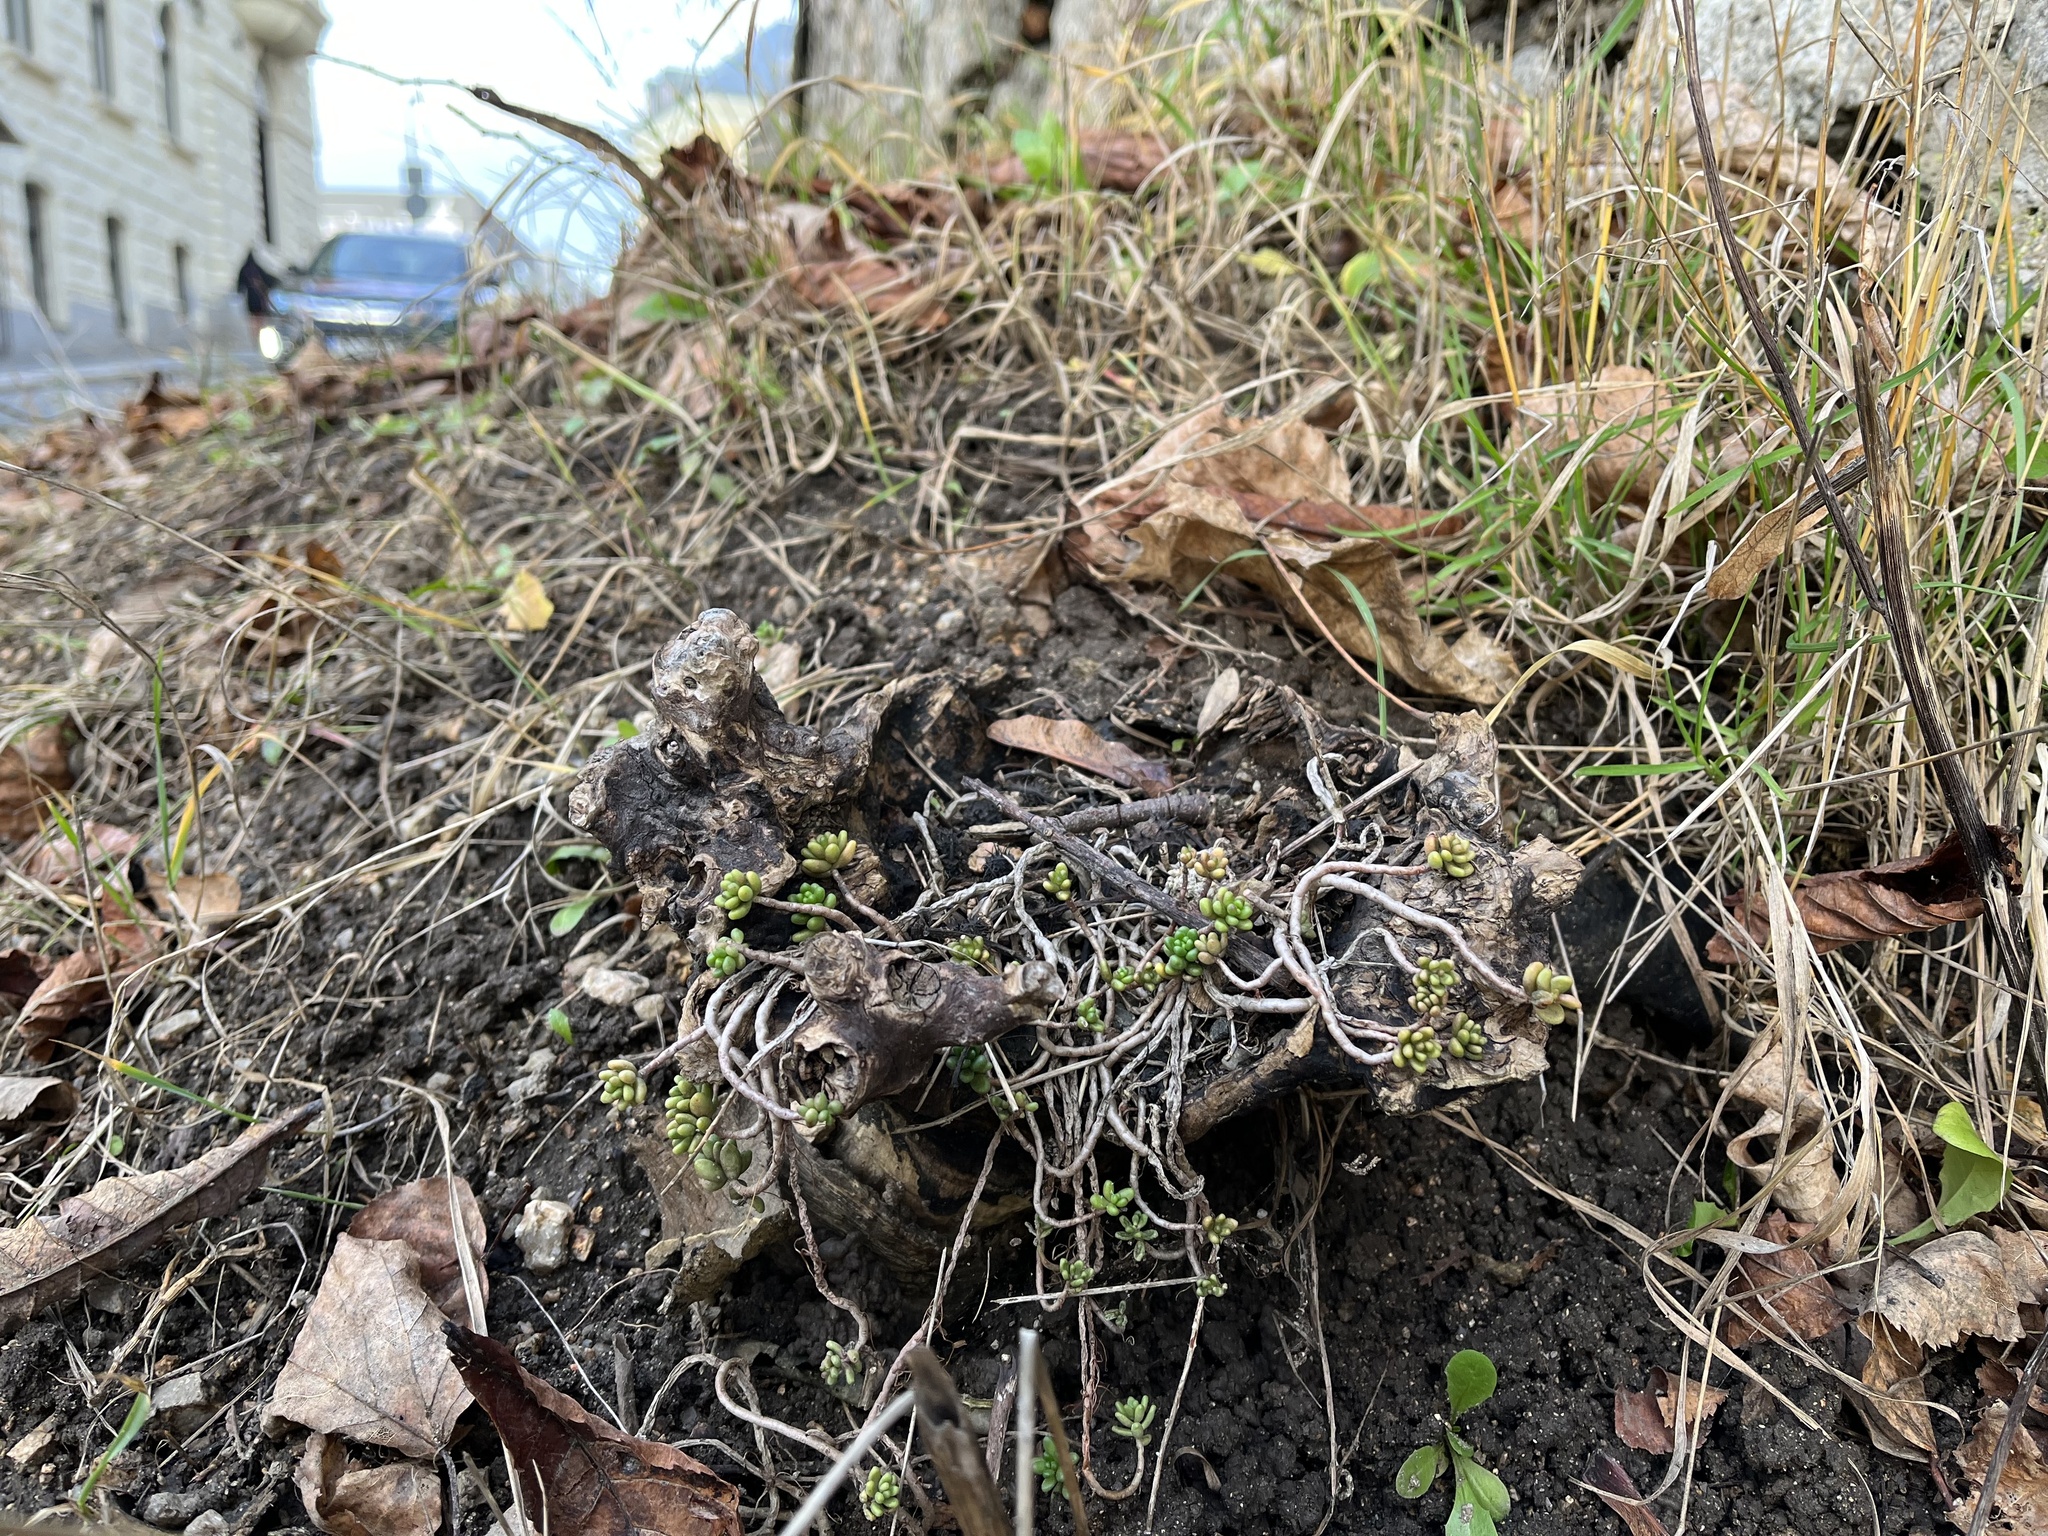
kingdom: Plantae
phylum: Tracheophyta
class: Magnoliopsida
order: Saxifragales
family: Crassulaceae
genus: Sedum
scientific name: Sedum album
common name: White stonecrop
